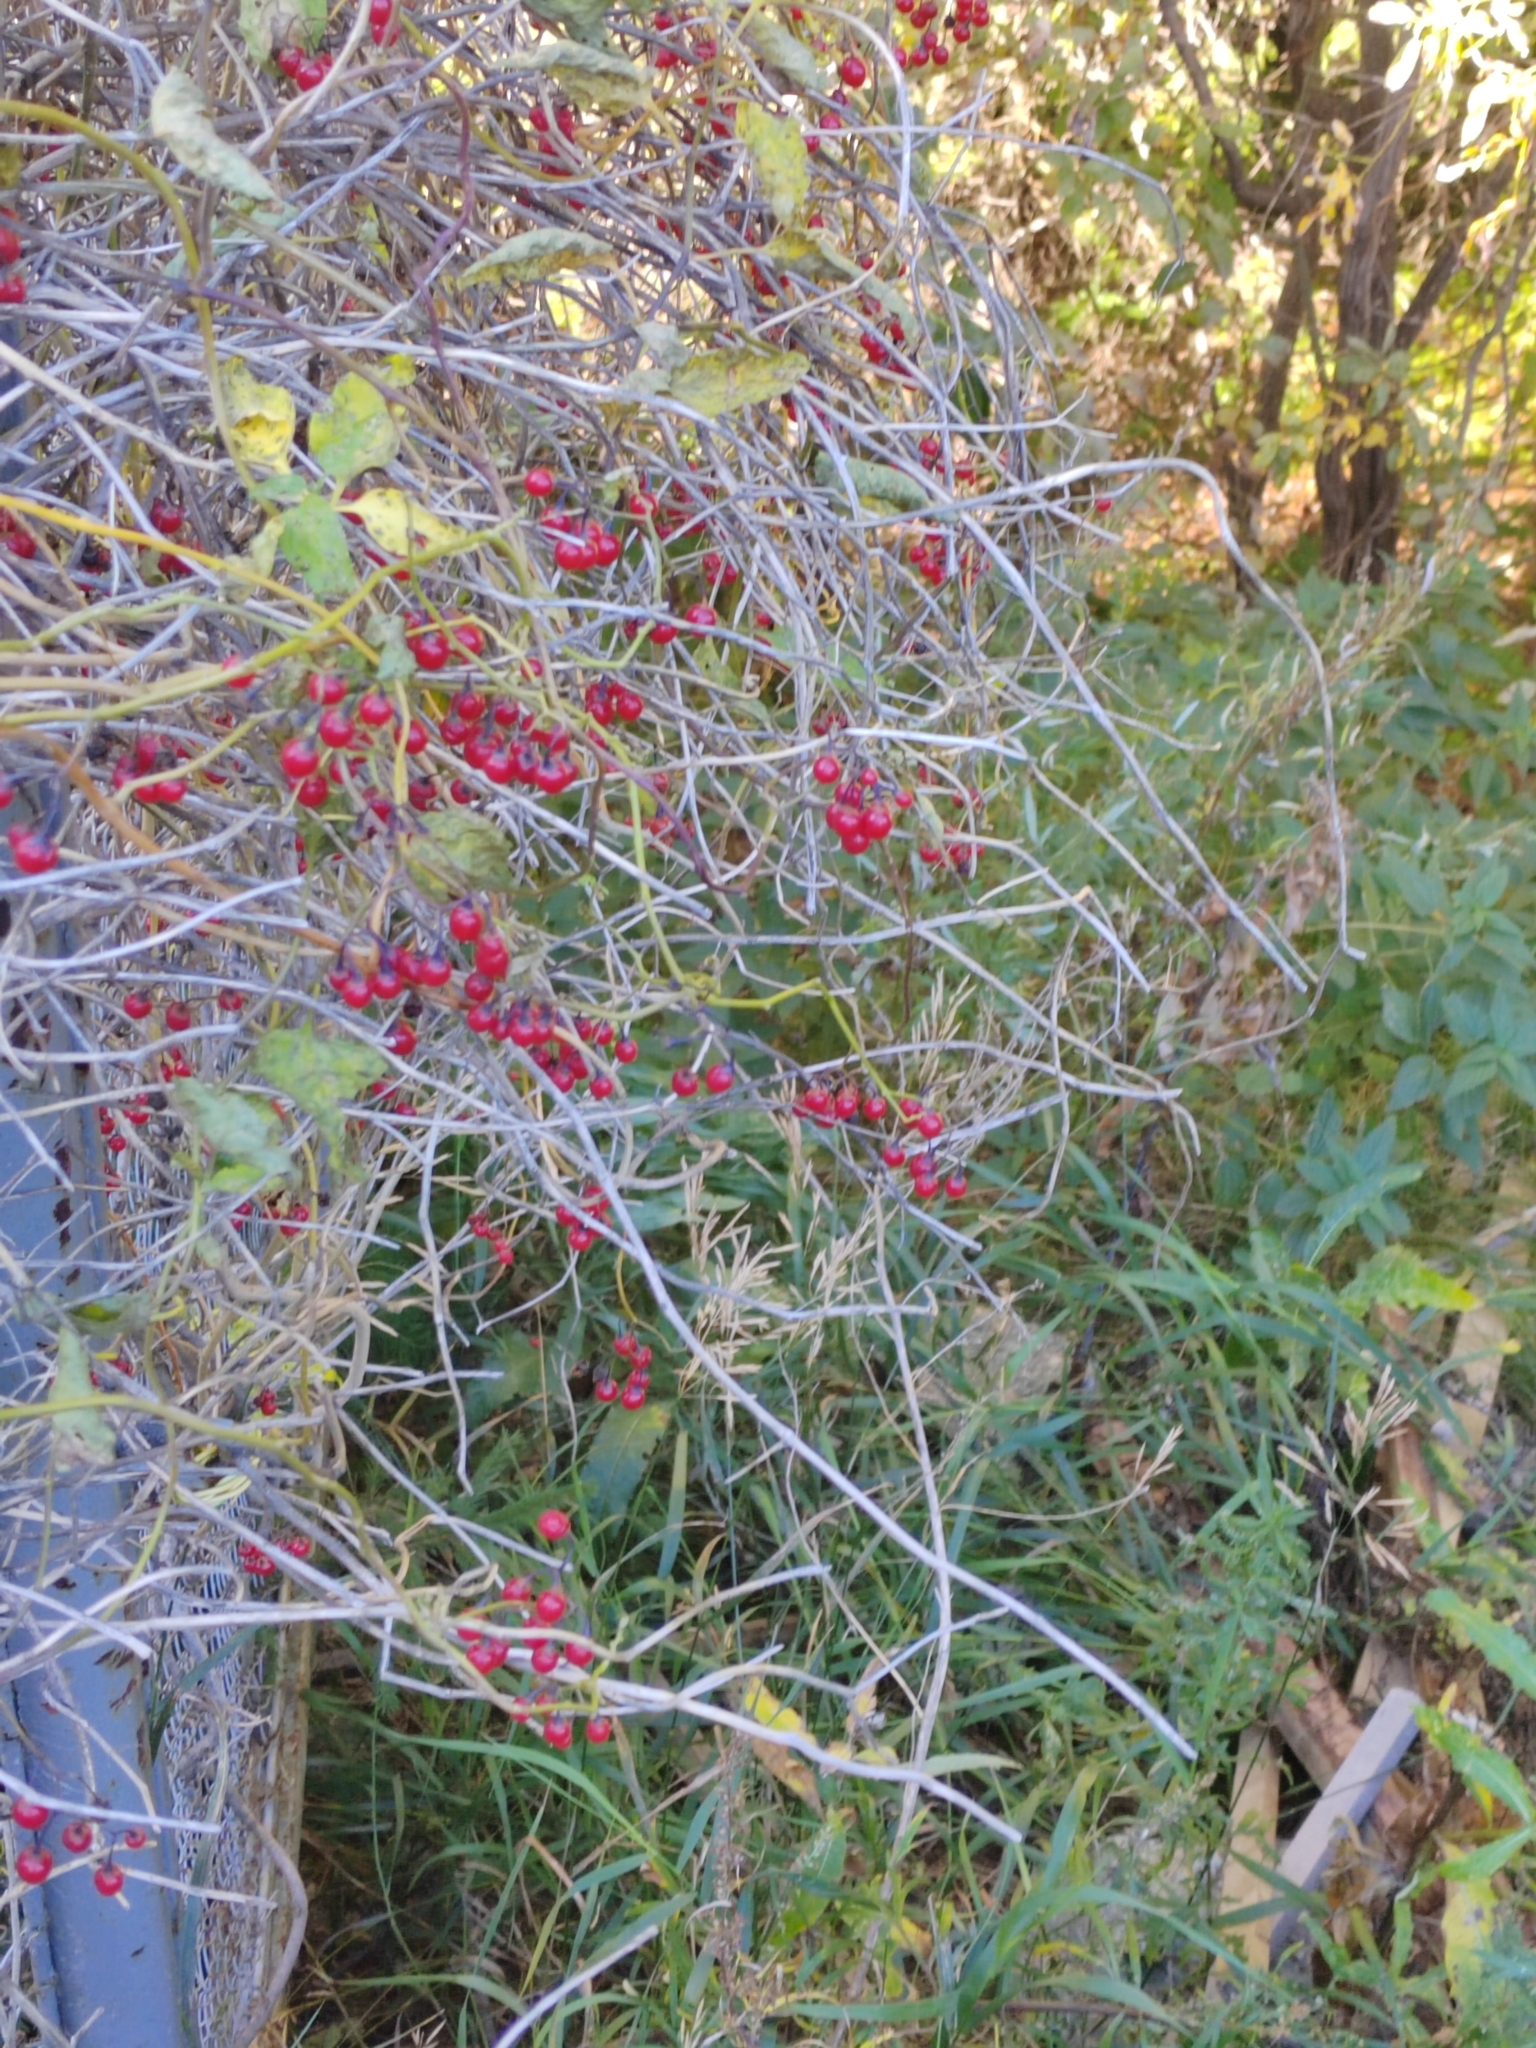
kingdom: Plantae
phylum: Tracheophyta
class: Magnoliopsida
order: Solanales
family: Solanaceae
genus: Solanum
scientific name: Solanum dulcamara
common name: Climbing nightshade
